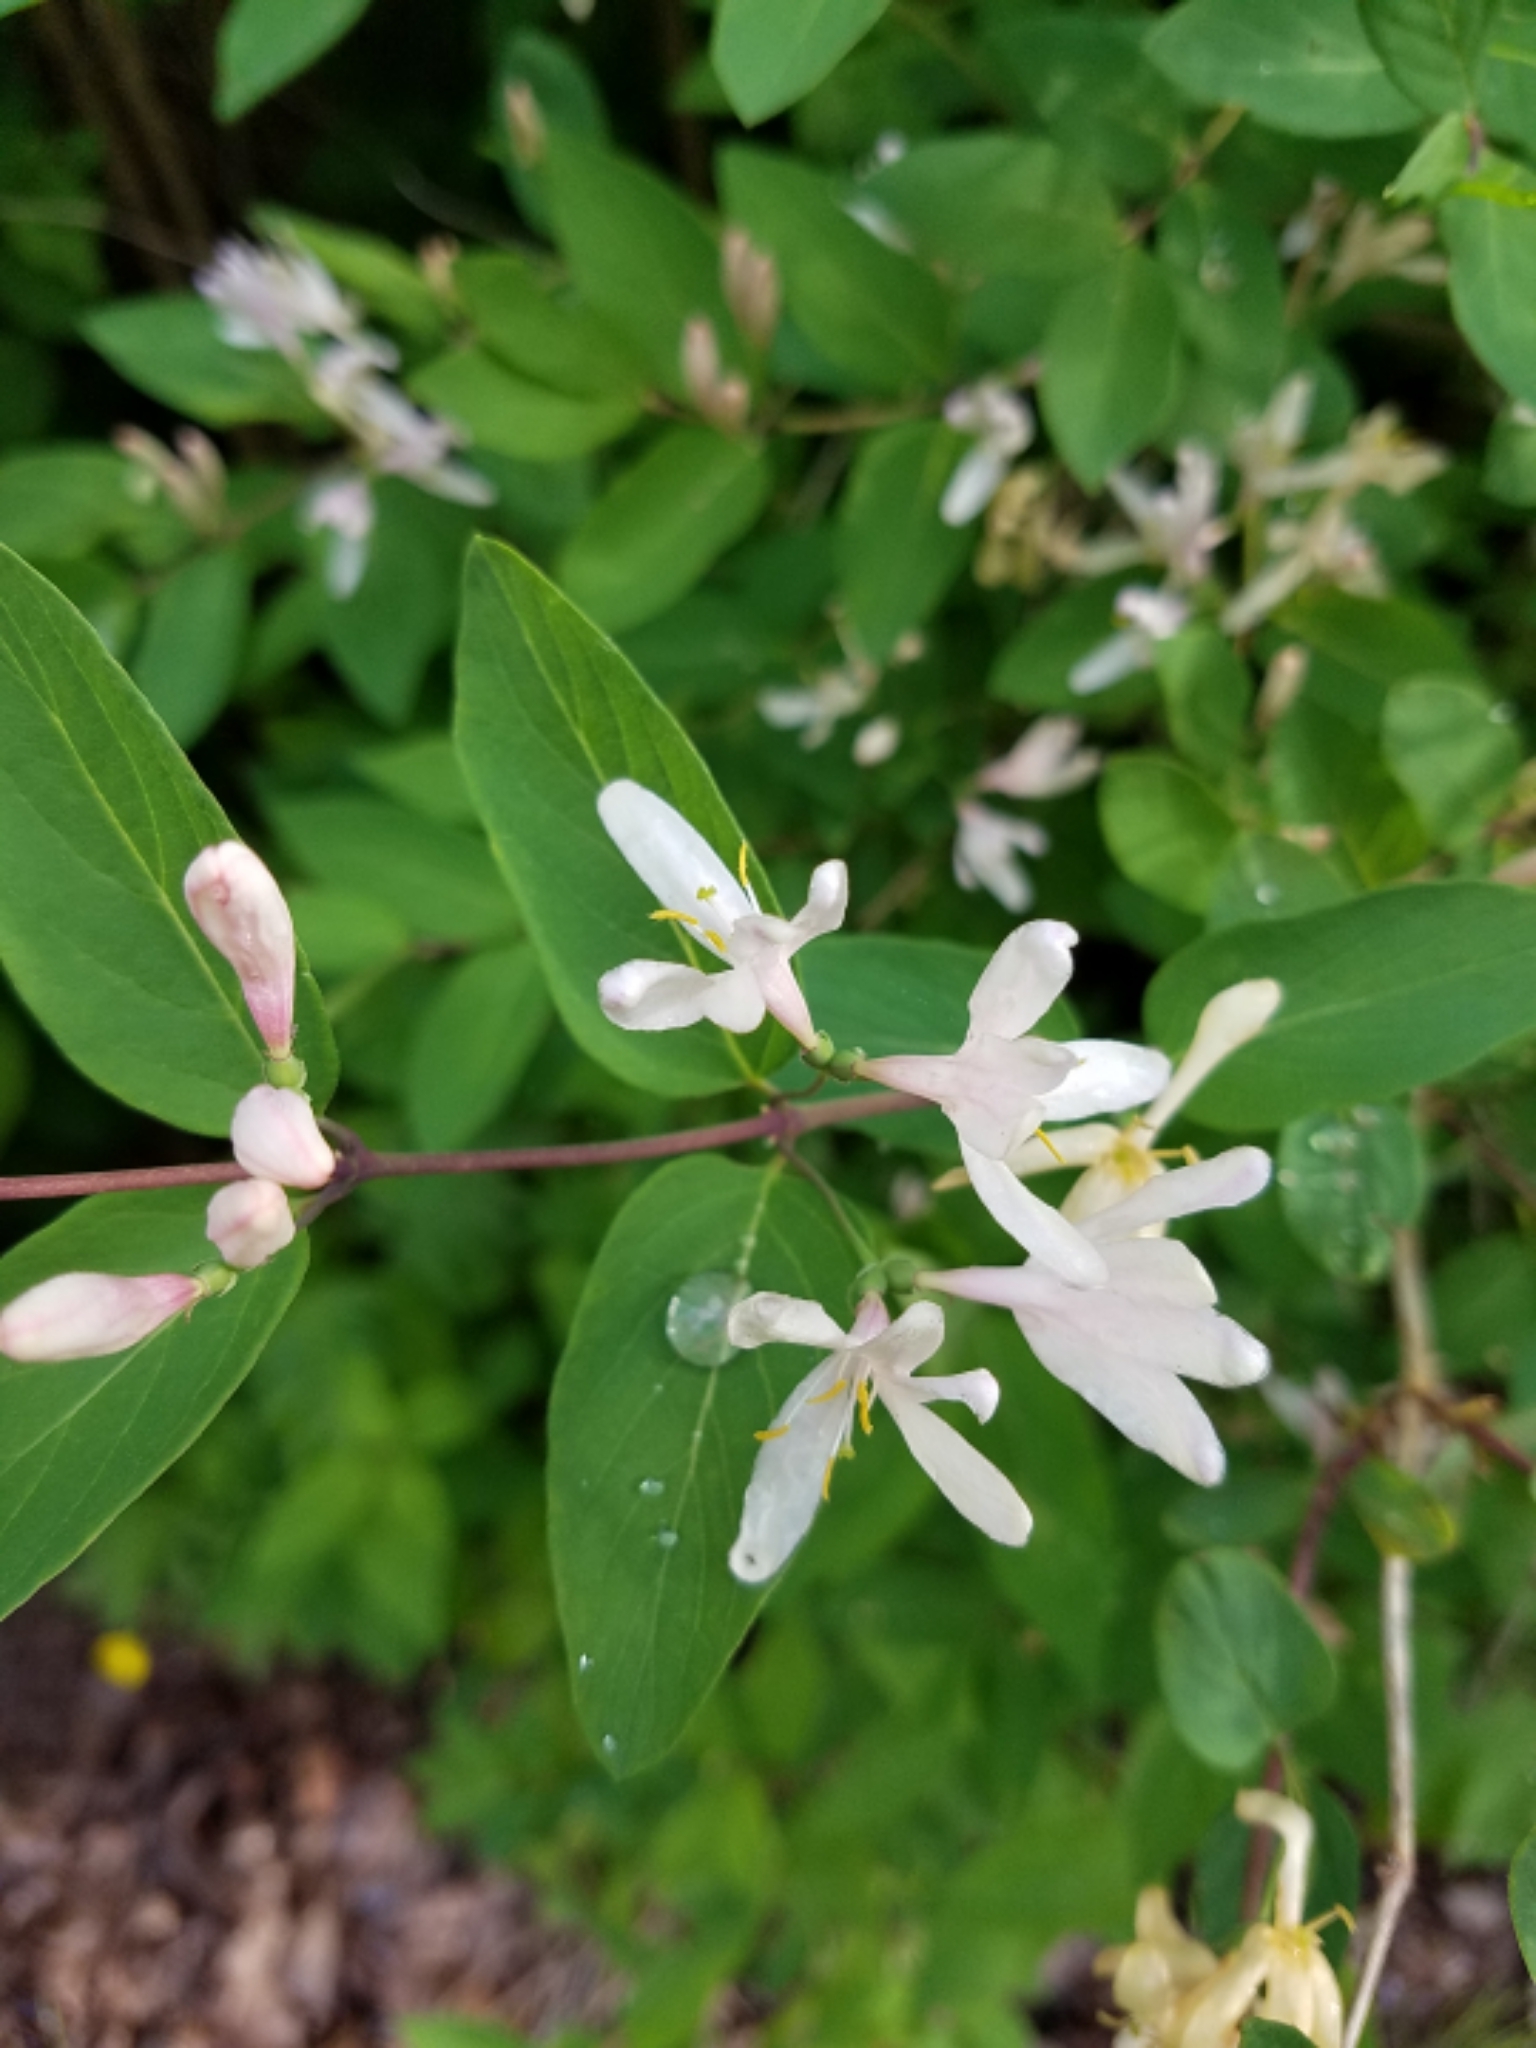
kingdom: Plantae
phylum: Tracheophyta
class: Magnoliopsida
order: Dipsacales
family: Caprifoliaceae
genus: Lonicera
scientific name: Lonicera morrowii
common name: Morrow's honeysuckle
